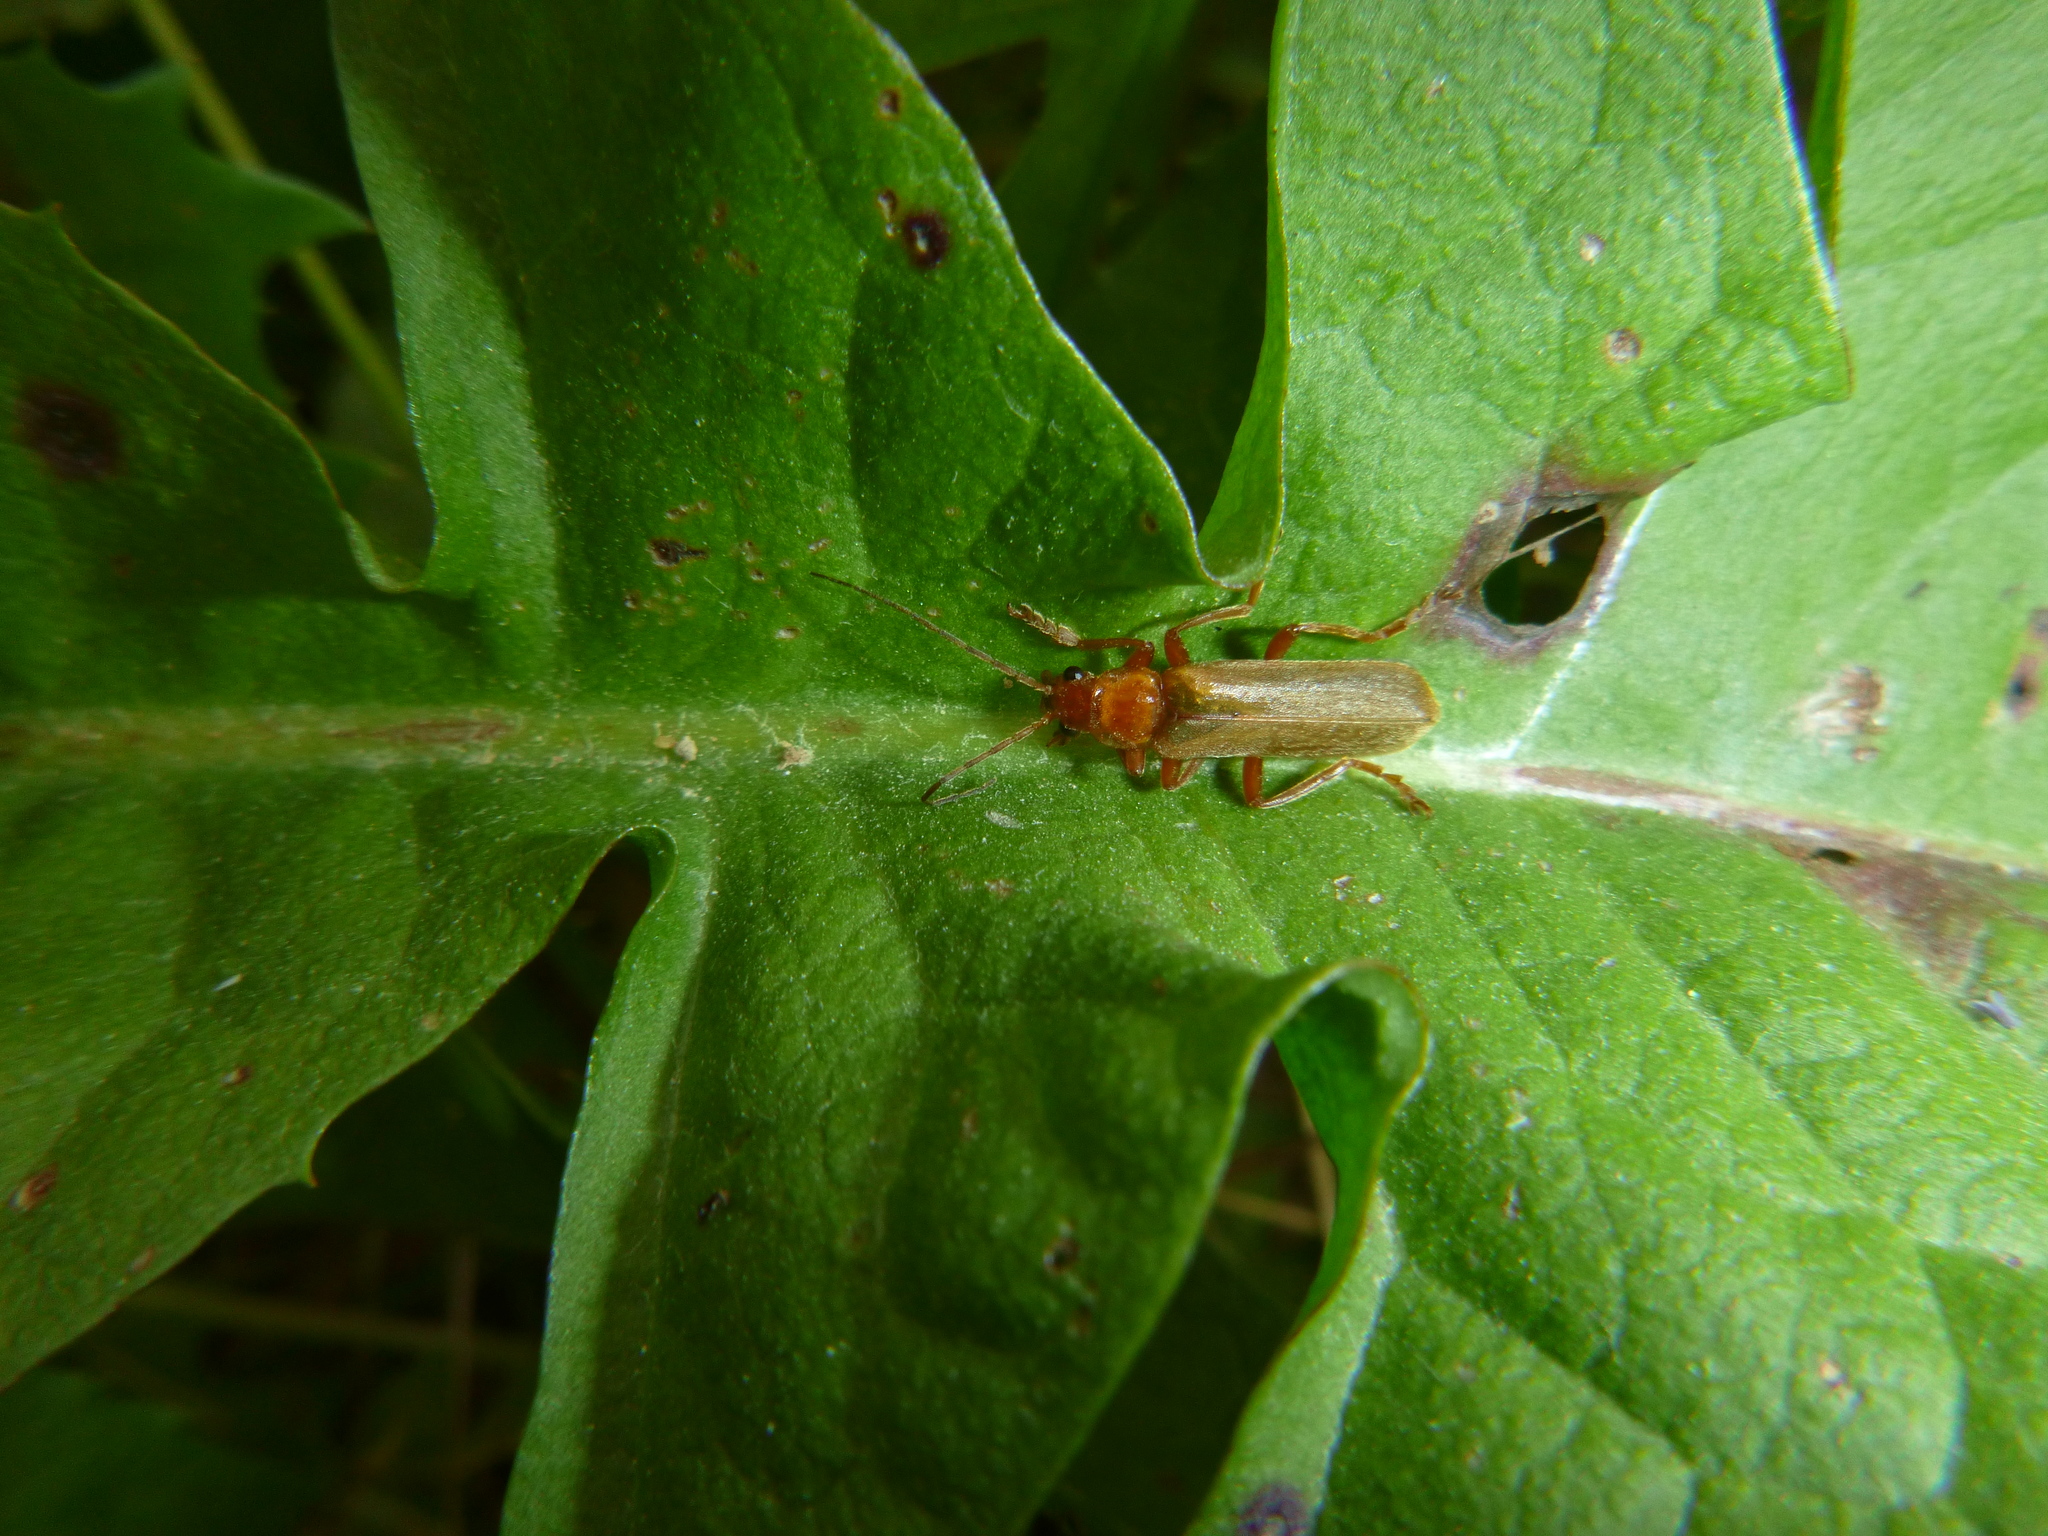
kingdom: Animalia
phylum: Arthropoda
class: Insecta
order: Coleoptera
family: Cantharidae
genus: Cantharis
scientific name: Cantharis rufa
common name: Red-spotted soldier beetle
